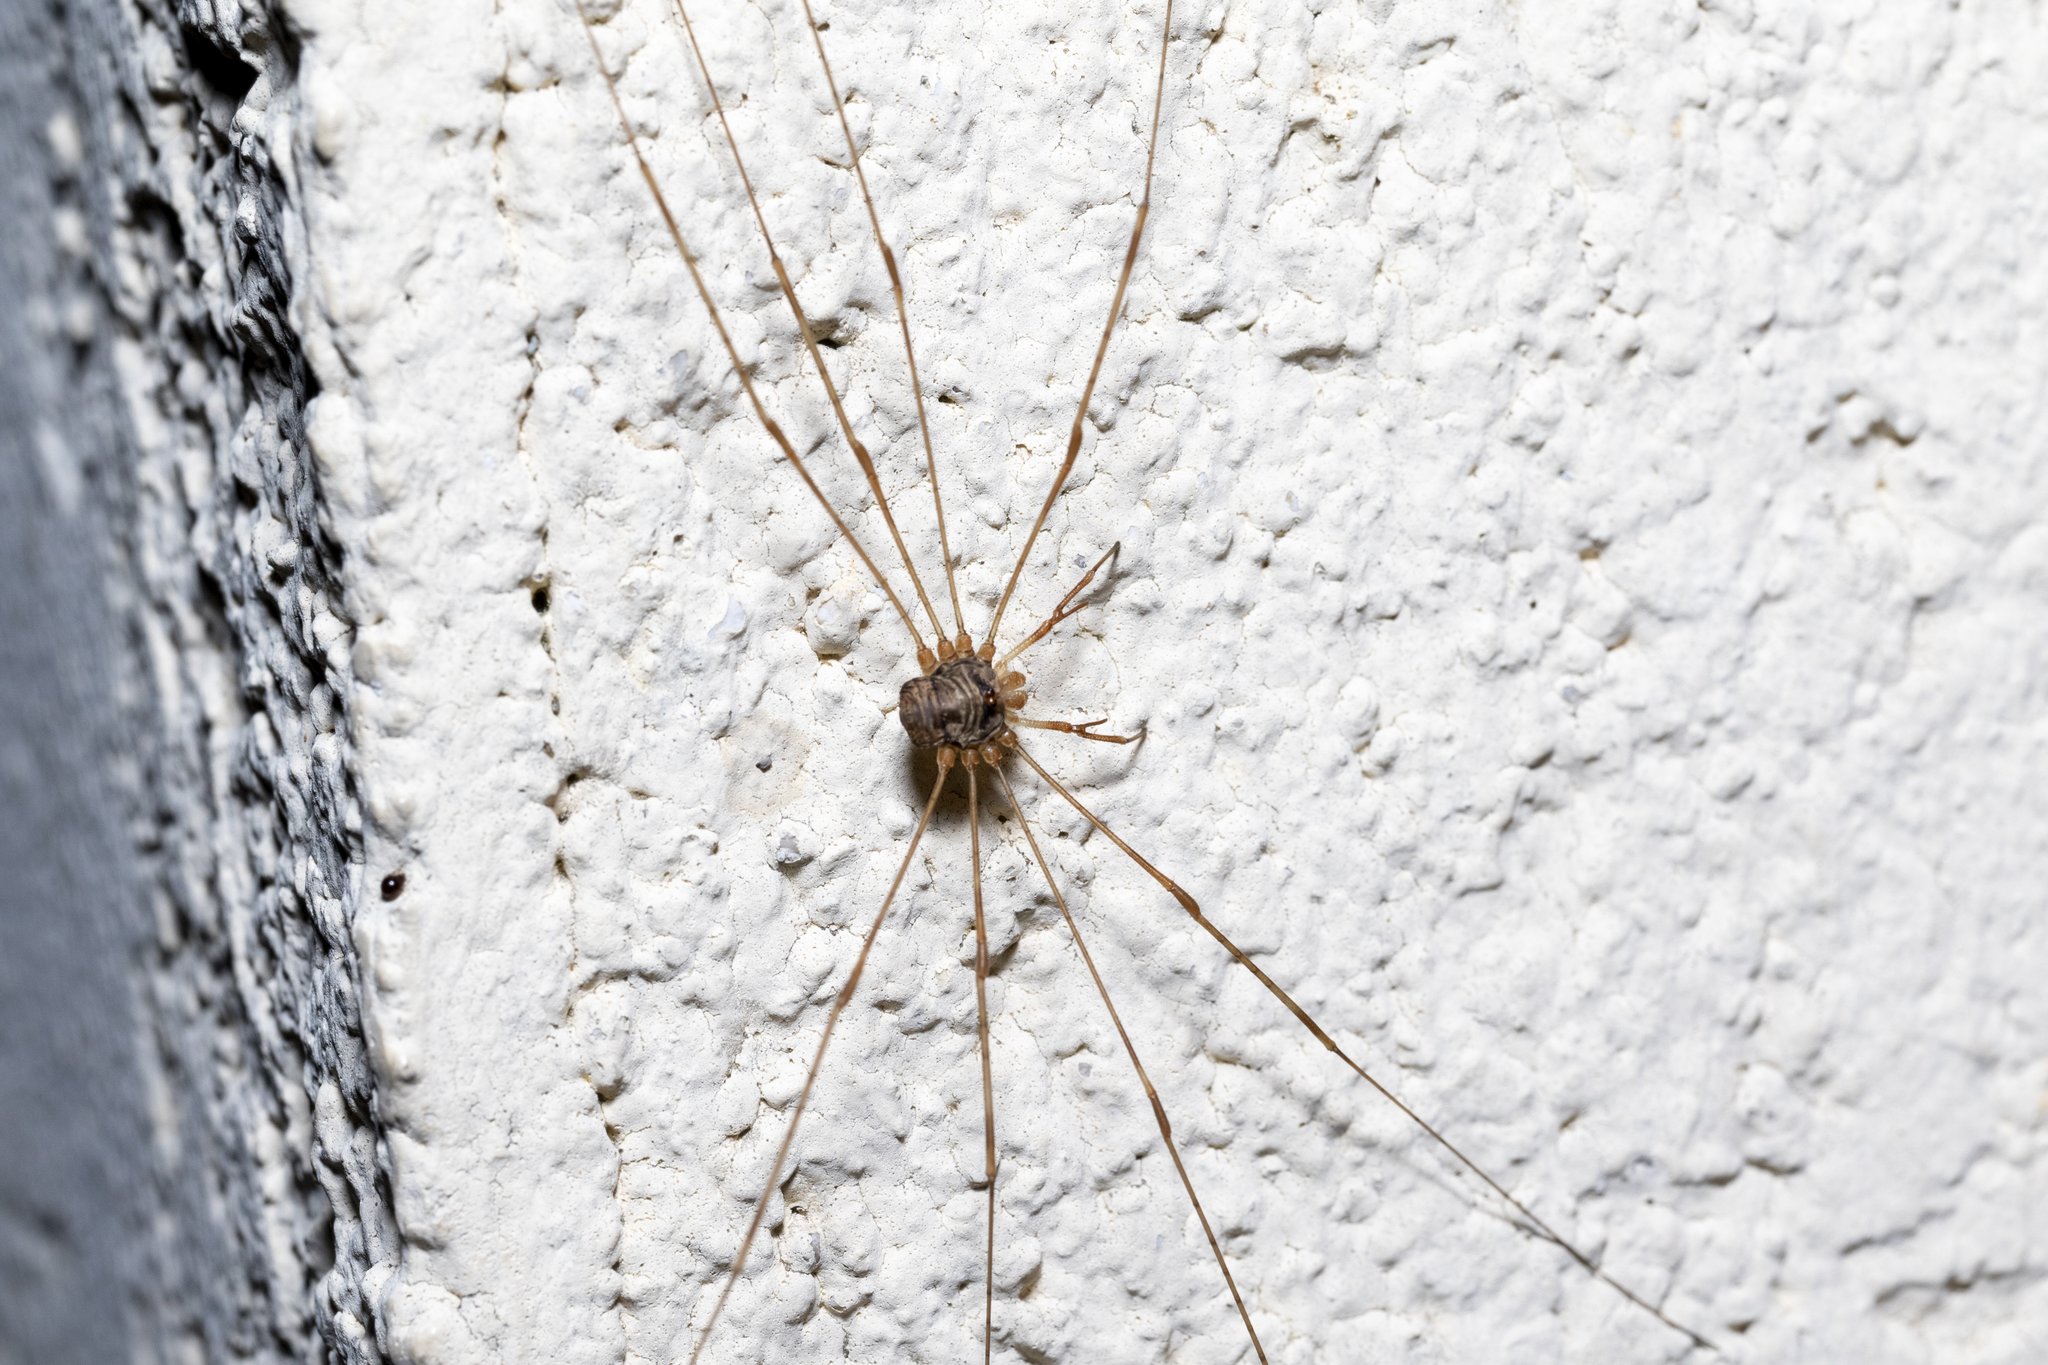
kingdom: Animalia
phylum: Arthropoda
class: Arachnida
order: Opiliones
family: Phalangiidae
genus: Dicranopalpus
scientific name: Dicranopalpus ramosus
